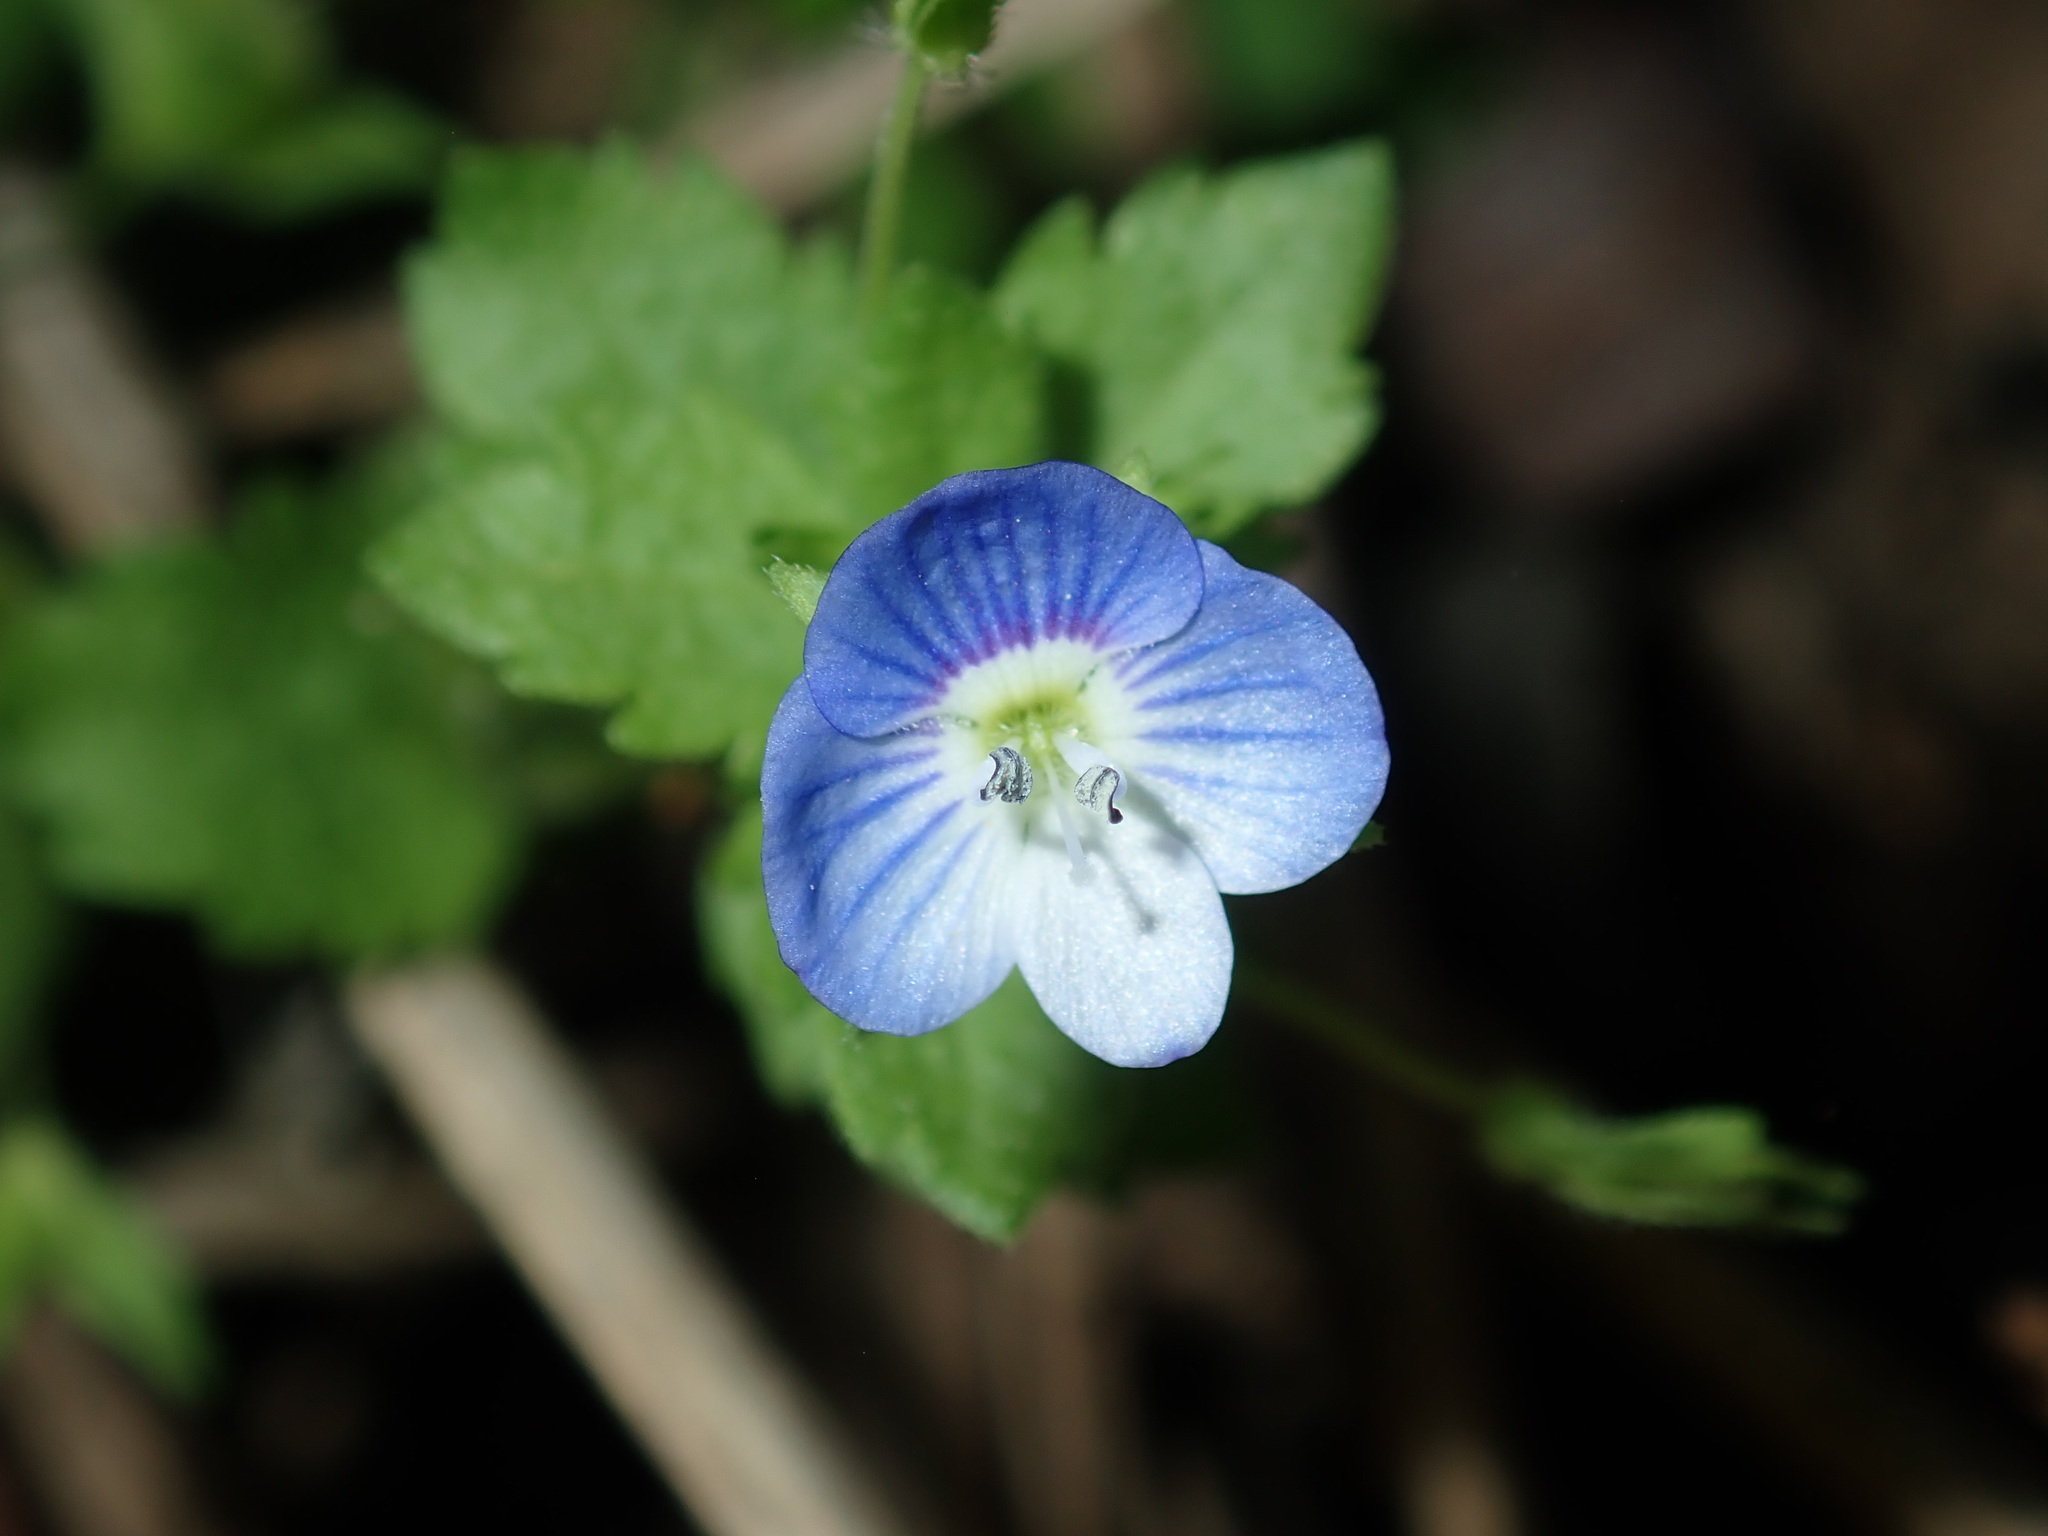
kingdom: Plantae
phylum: Tracheophyta
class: Magnoliopsida
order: Lamiales
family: Plantaginaceae
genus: Veronica
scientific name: Veronica persica
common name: Common field-speedwell
